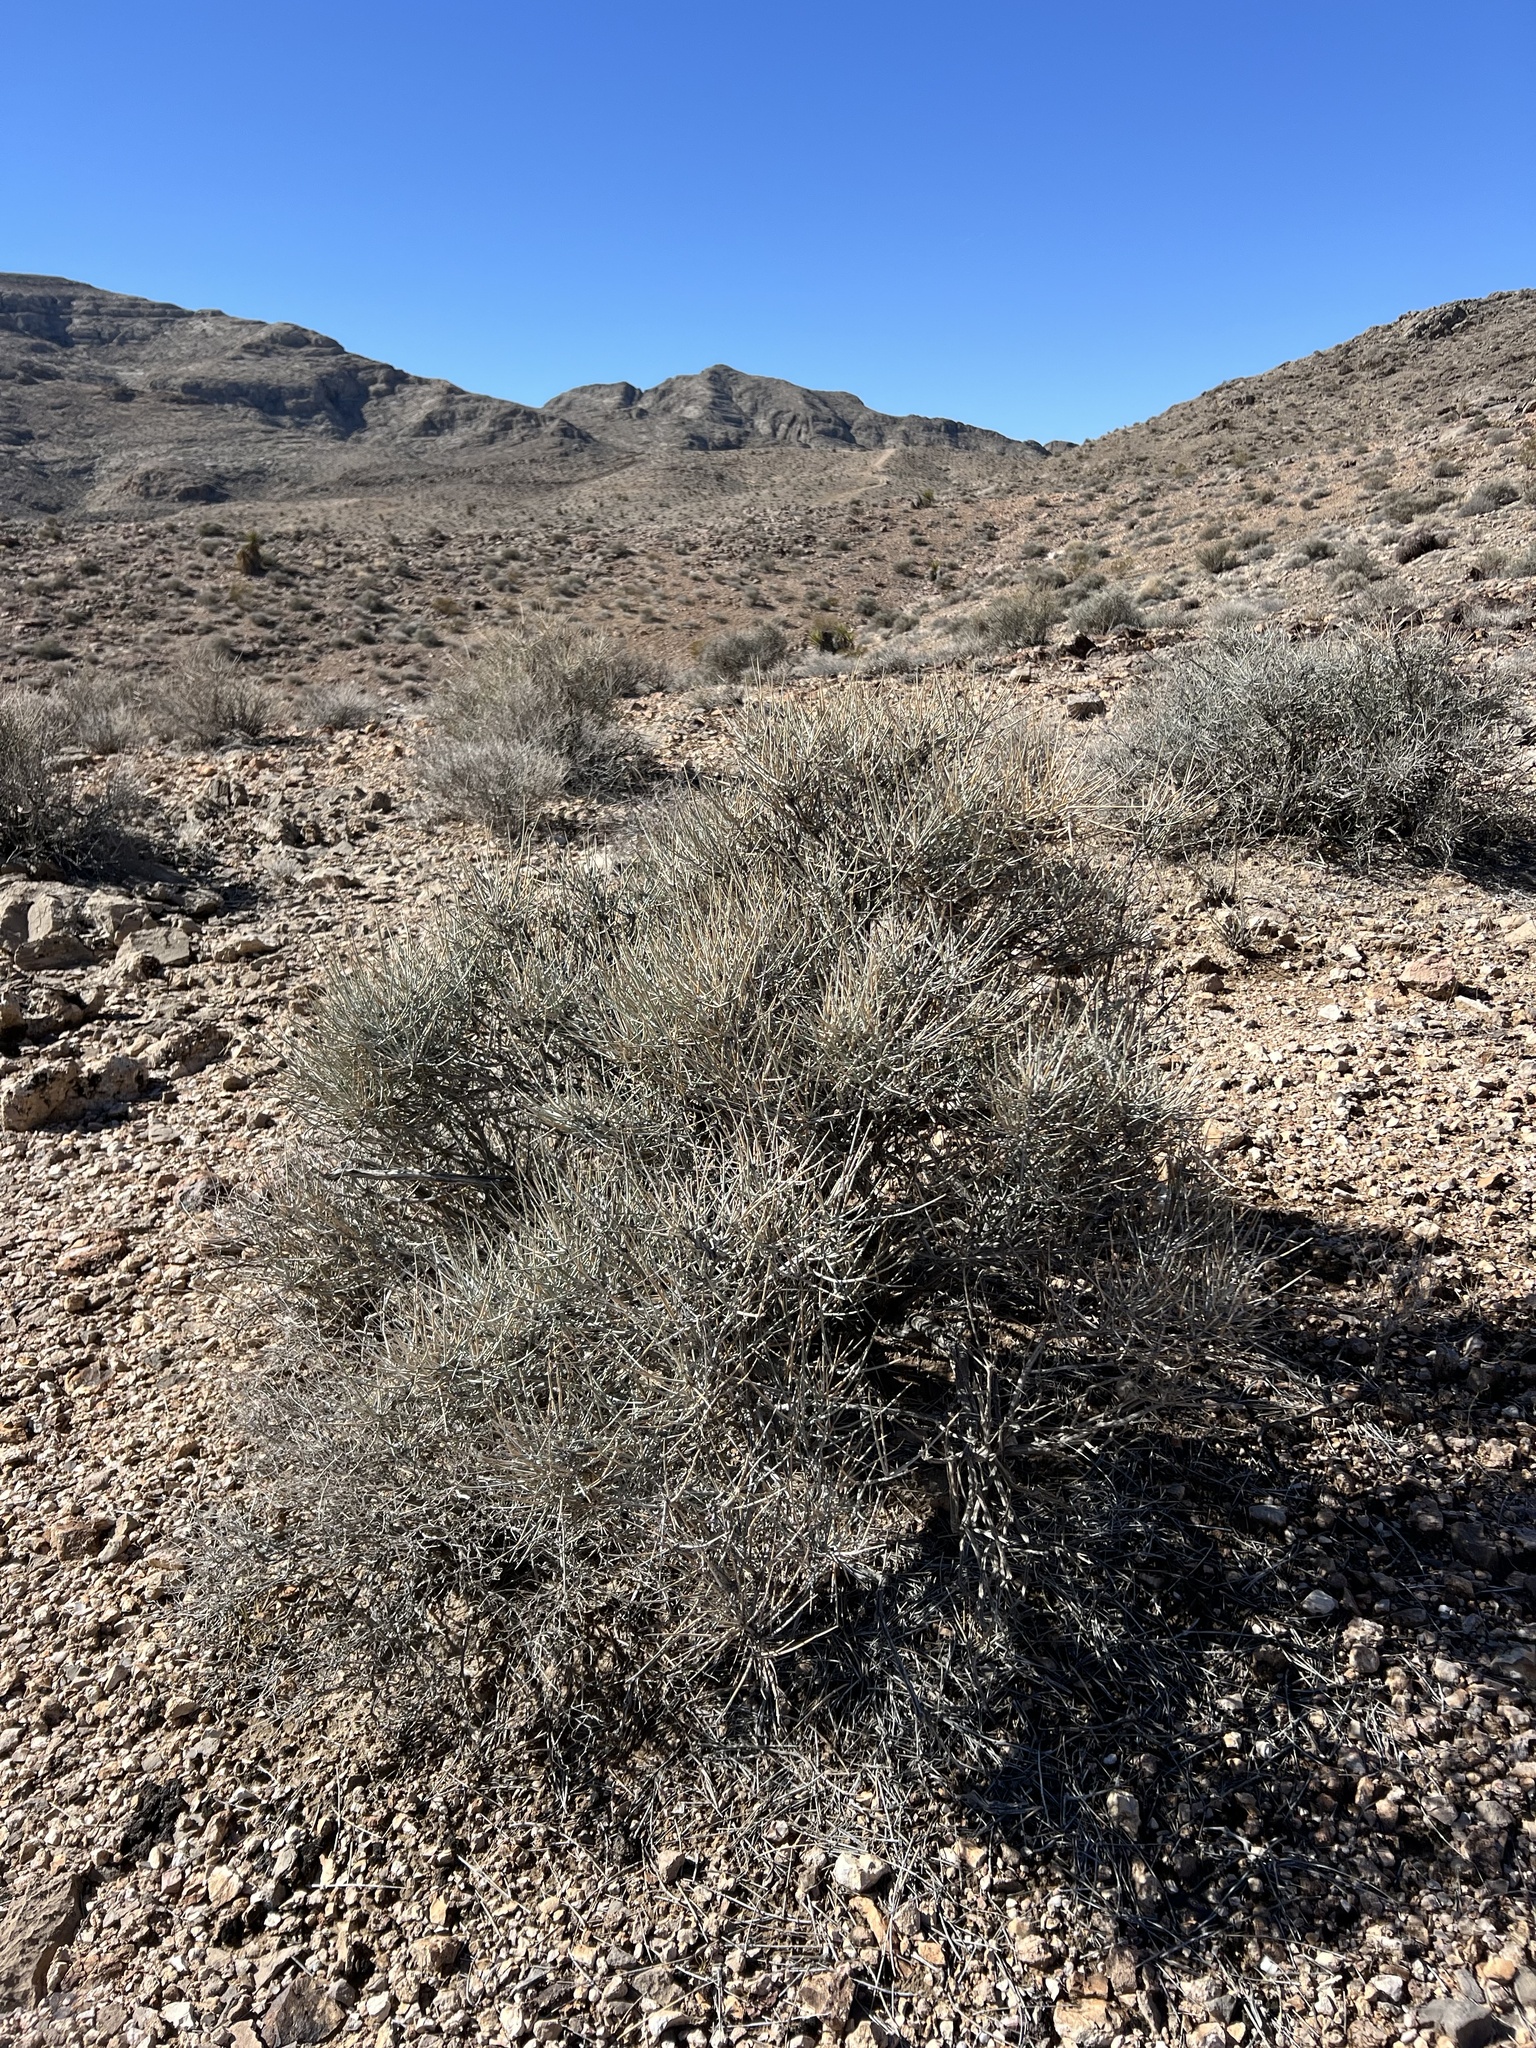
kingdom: Plantae
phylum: Tracheophyta
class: Gnetopsida
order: Ephedrales
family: Ephedraceae
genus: Ephedra
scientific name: Ephedra nevadensis
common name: Gray ephedra
